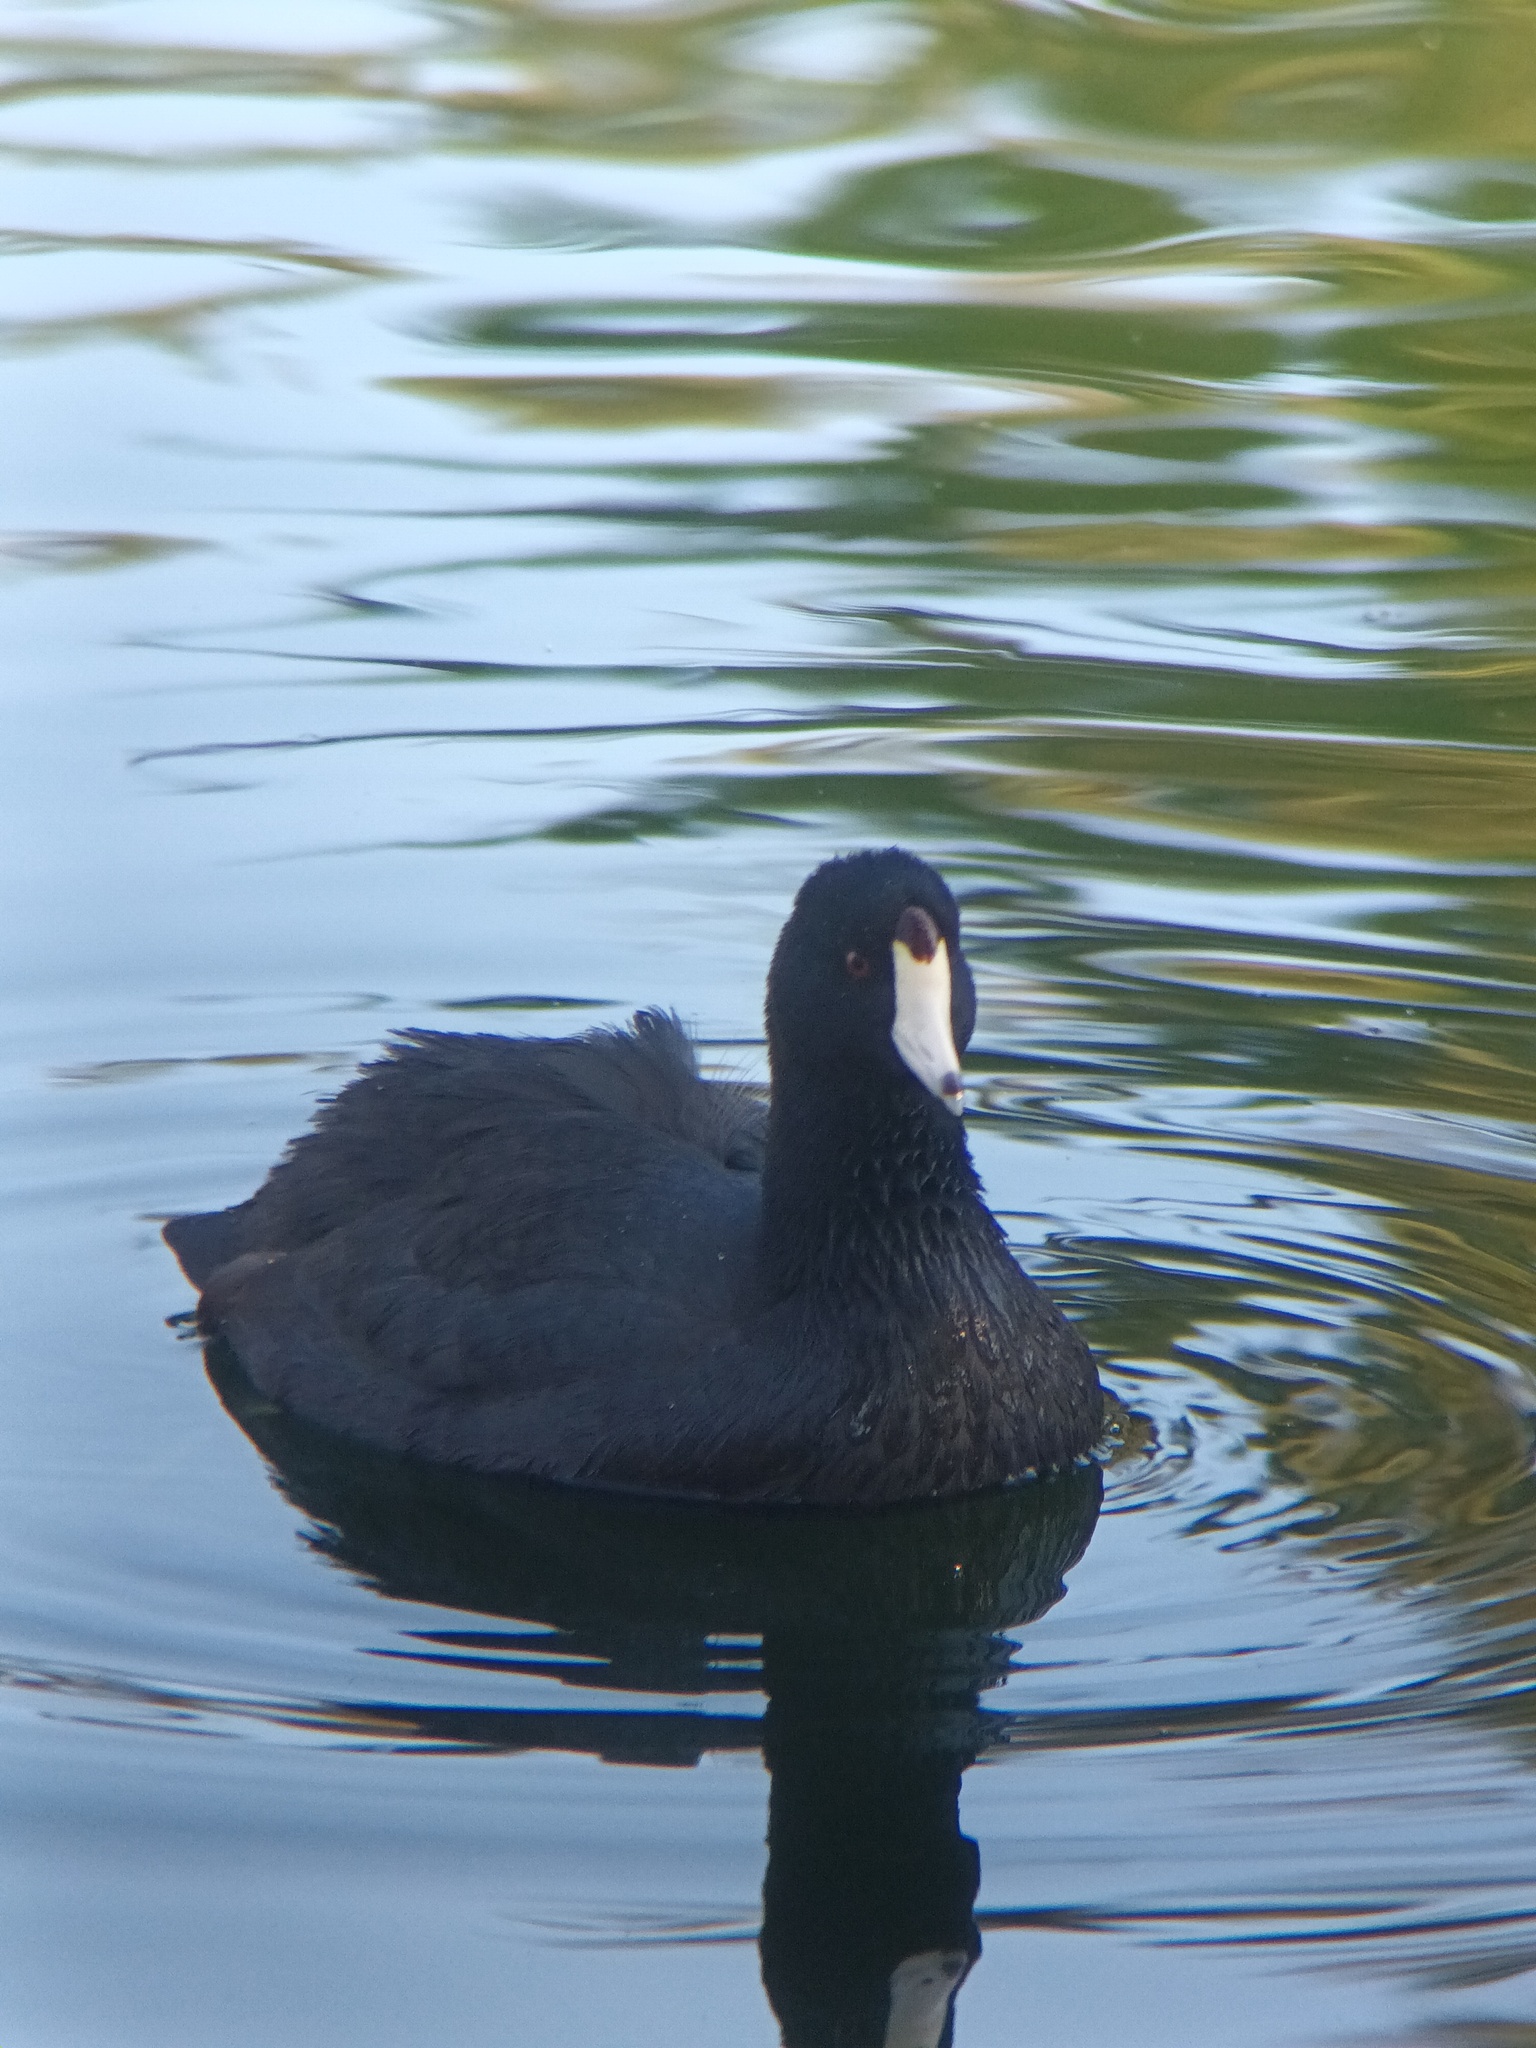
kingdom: Animalia
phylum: Chordata
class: Aves
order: Gruiformes
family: Rallidae
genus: Fulica
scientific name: Fulica americana
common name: American coot
